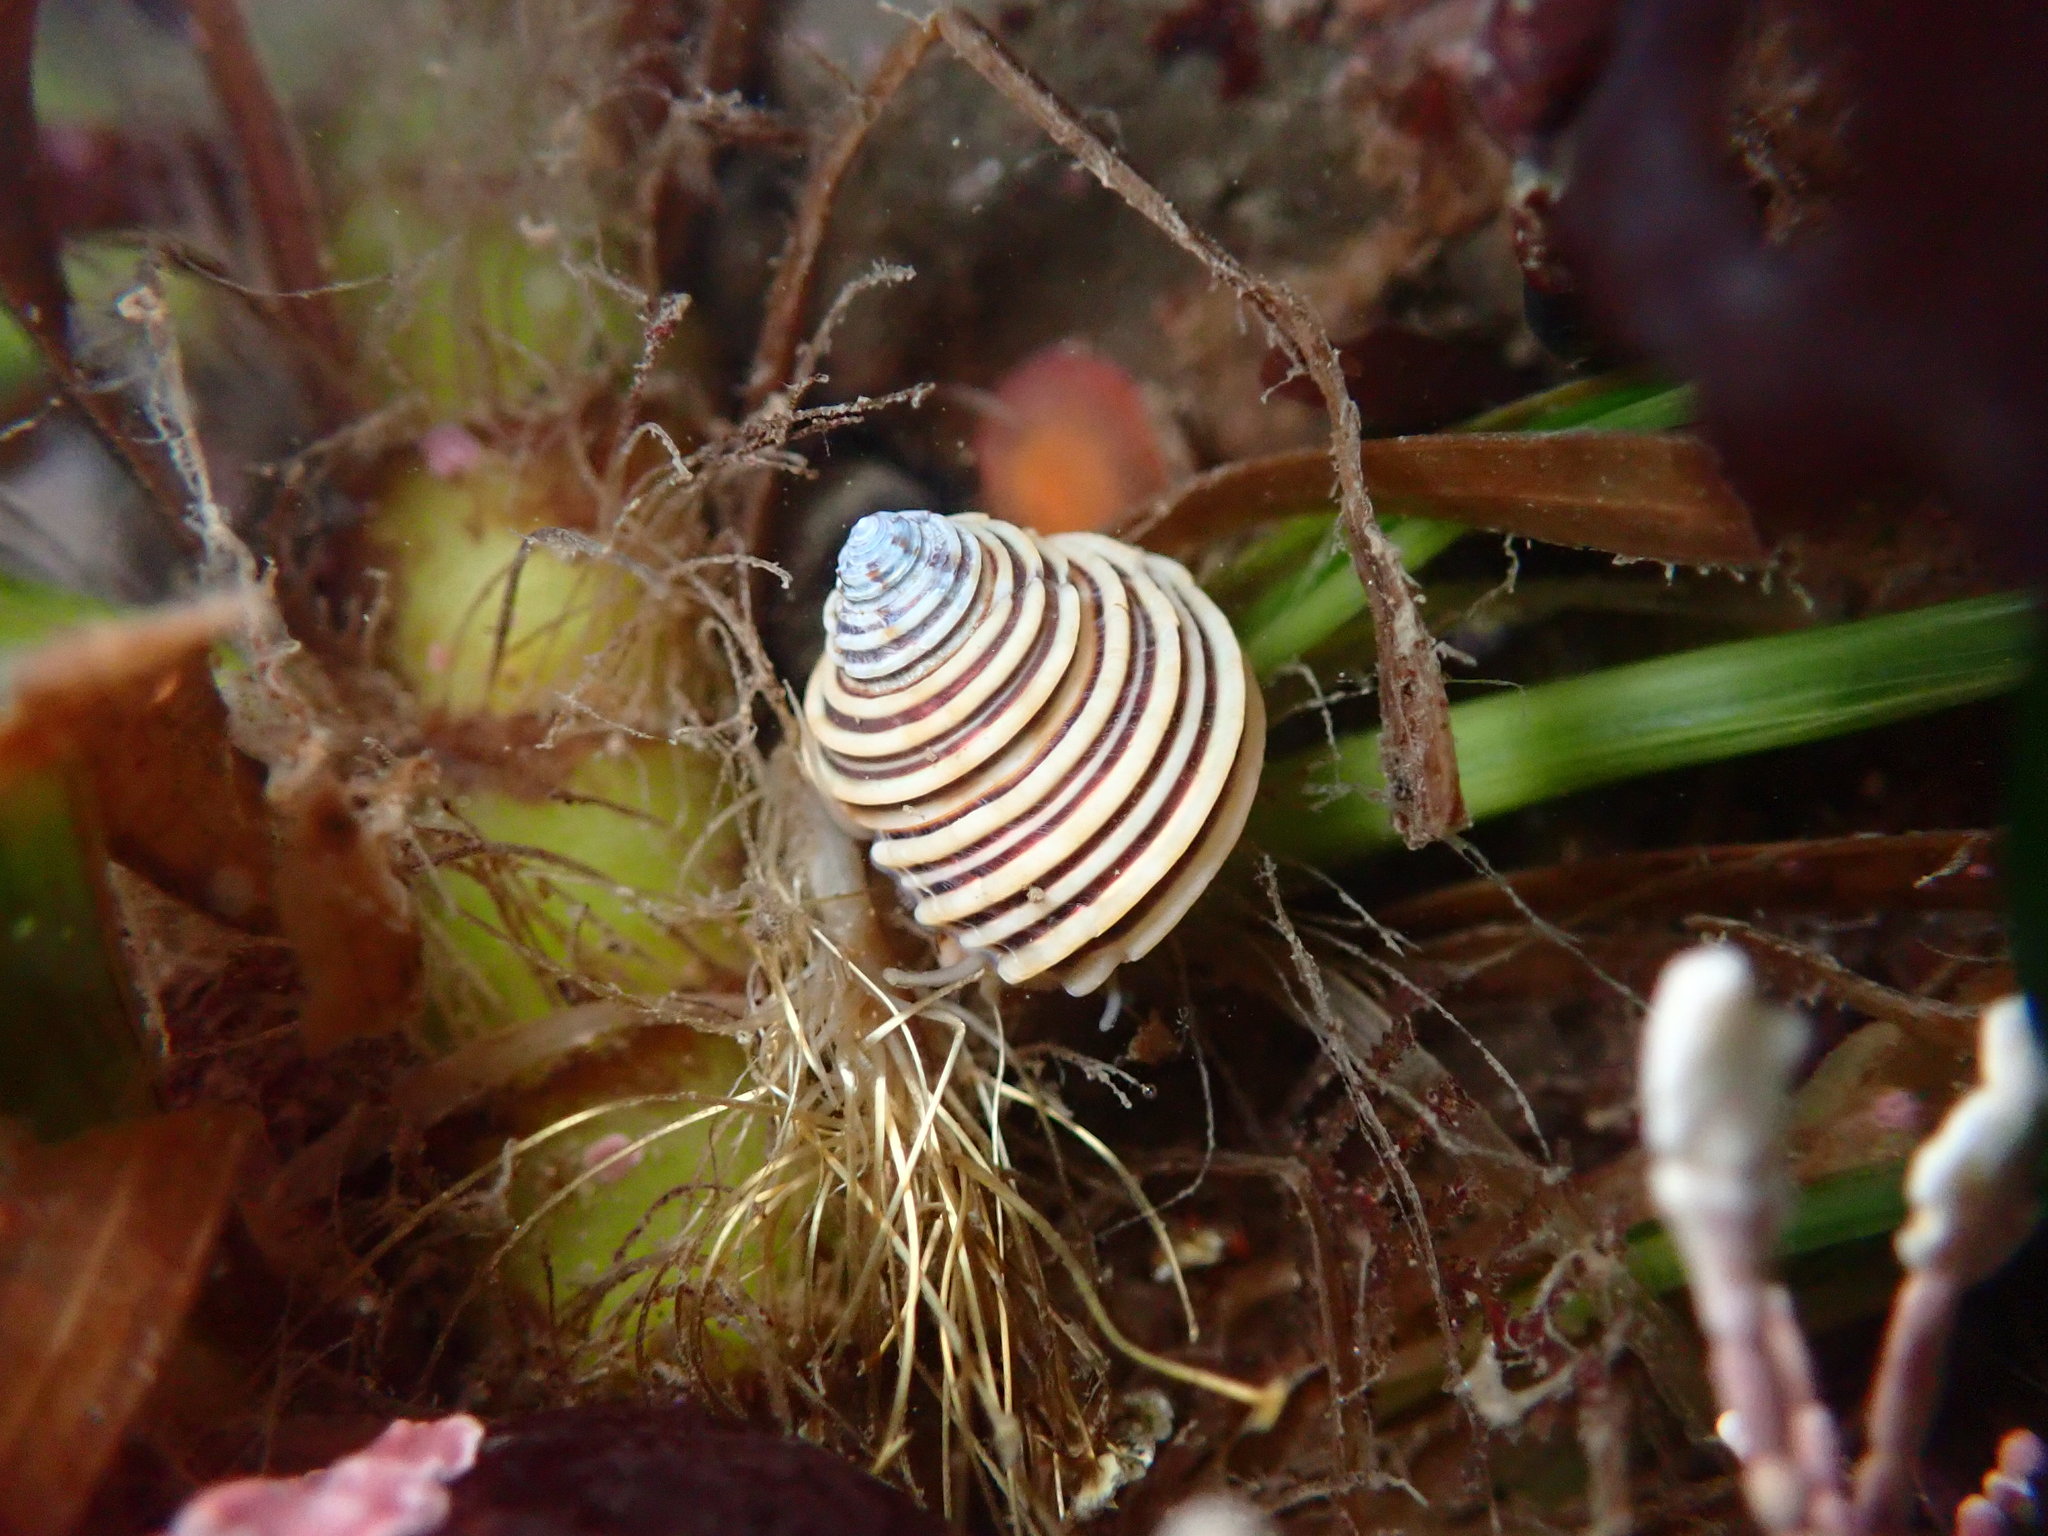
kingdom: Animalia
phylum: Mollusca
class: Gastropoda
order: Trochida
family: Calliostomatidae
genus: Calliostoma
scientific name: Calliostoma canaliculatum
